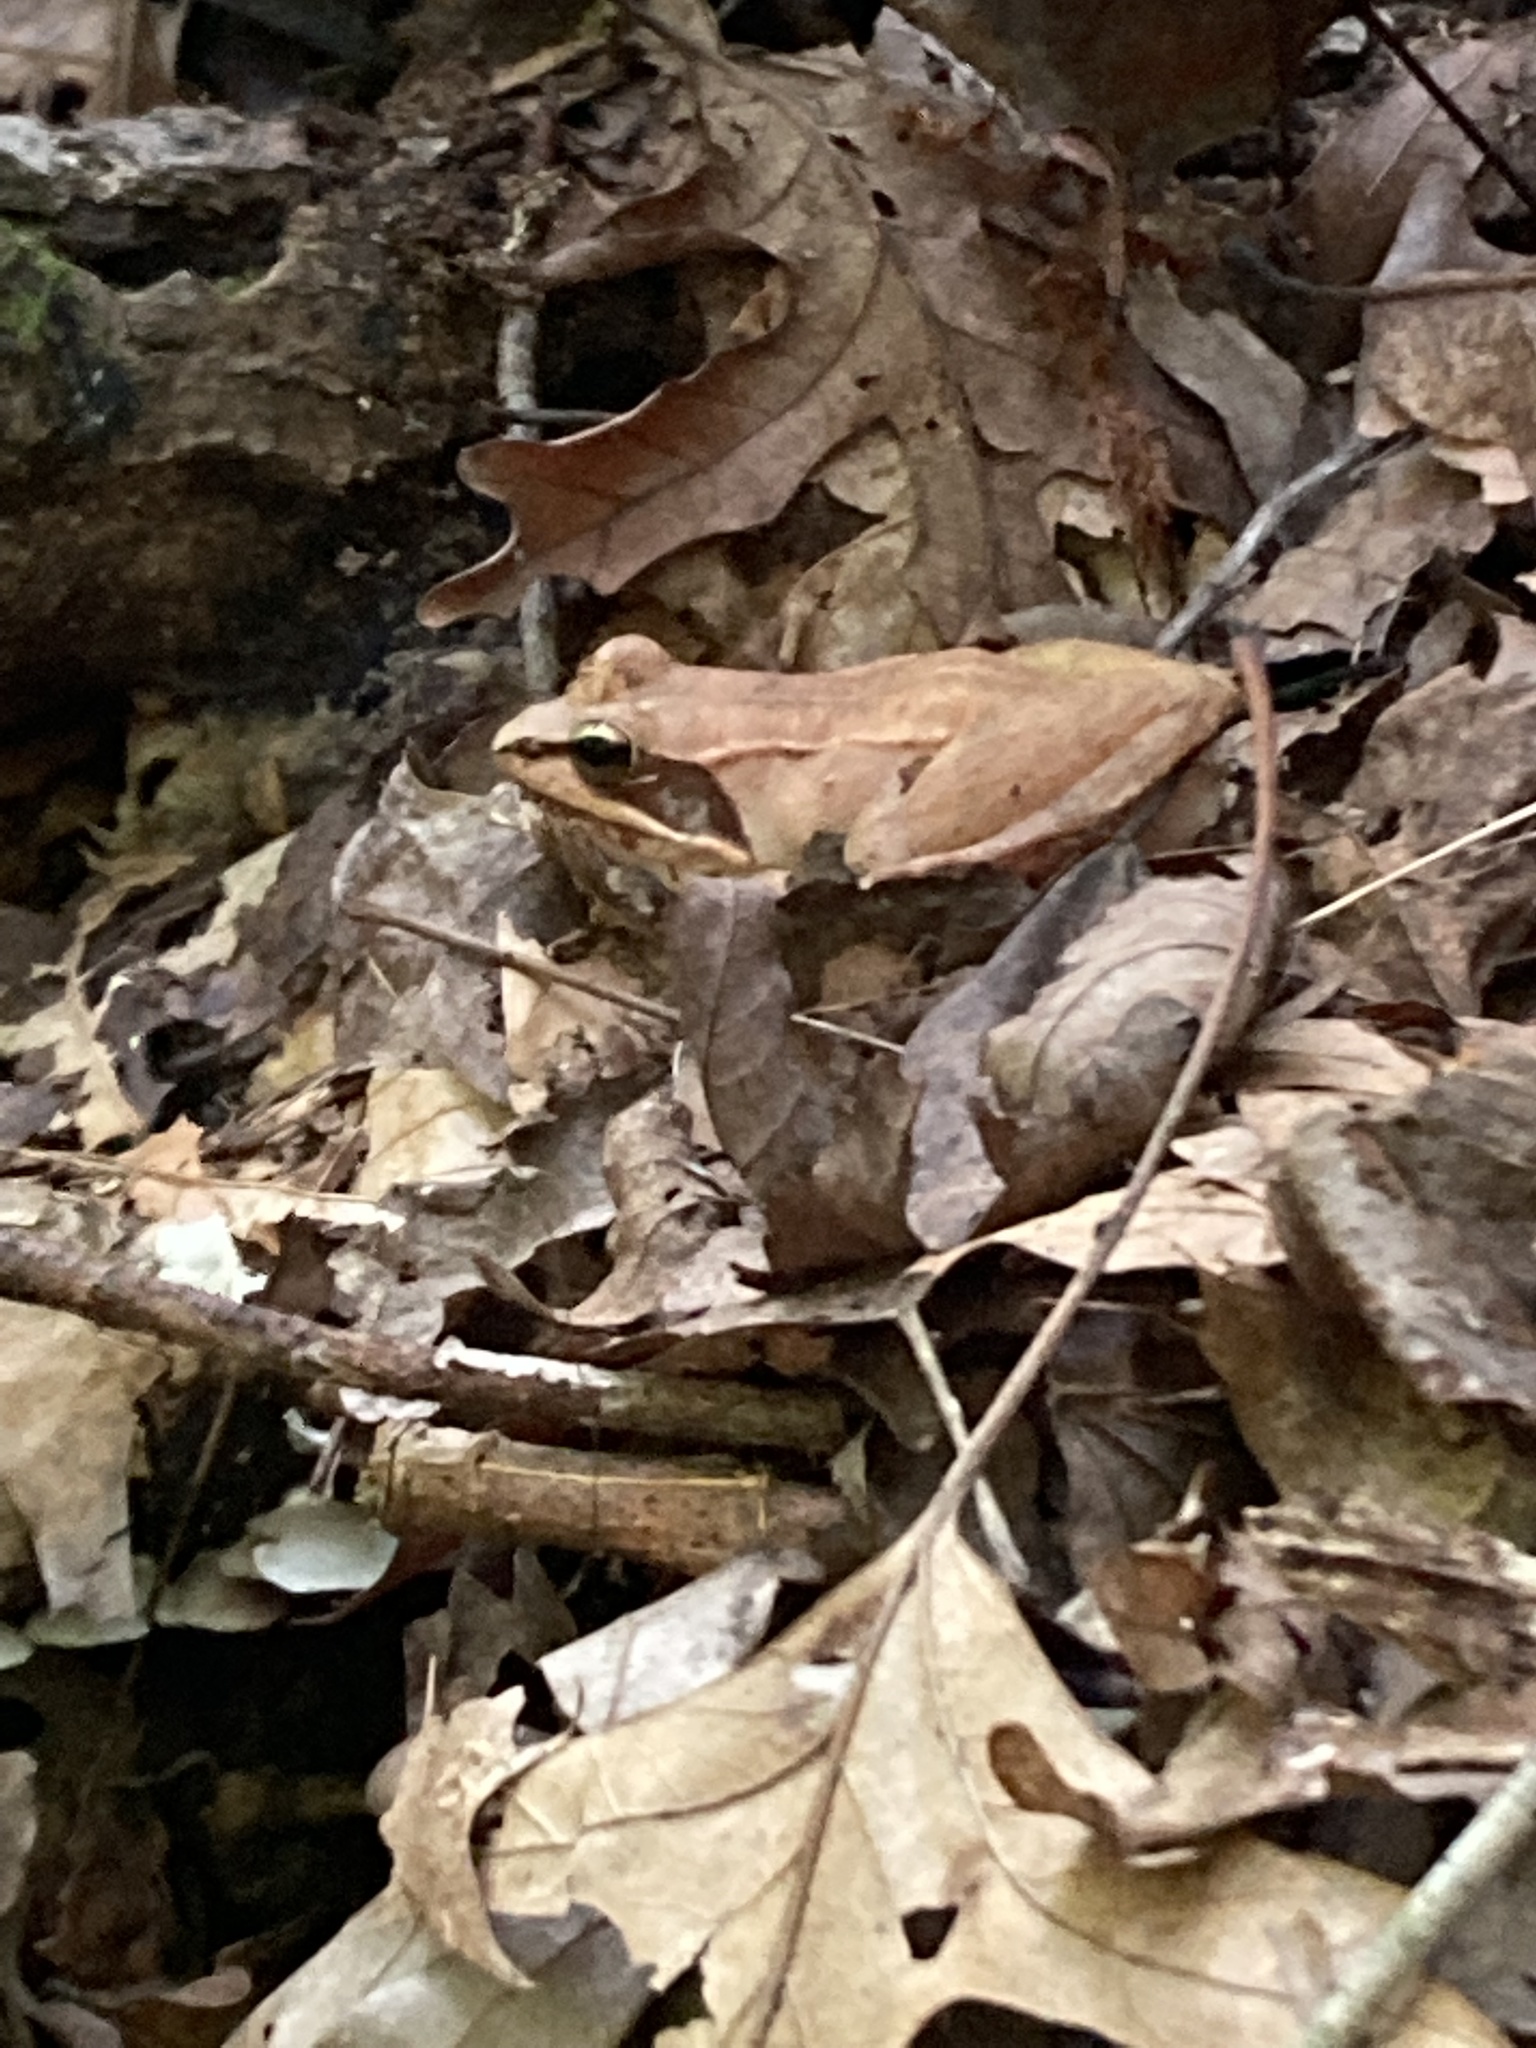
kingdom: Animalia
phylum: Chordata
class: Amphibia
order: Anura
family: Ranidae
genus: Lithobates
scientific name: Lithobates sylvaticus
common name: Wood frog
